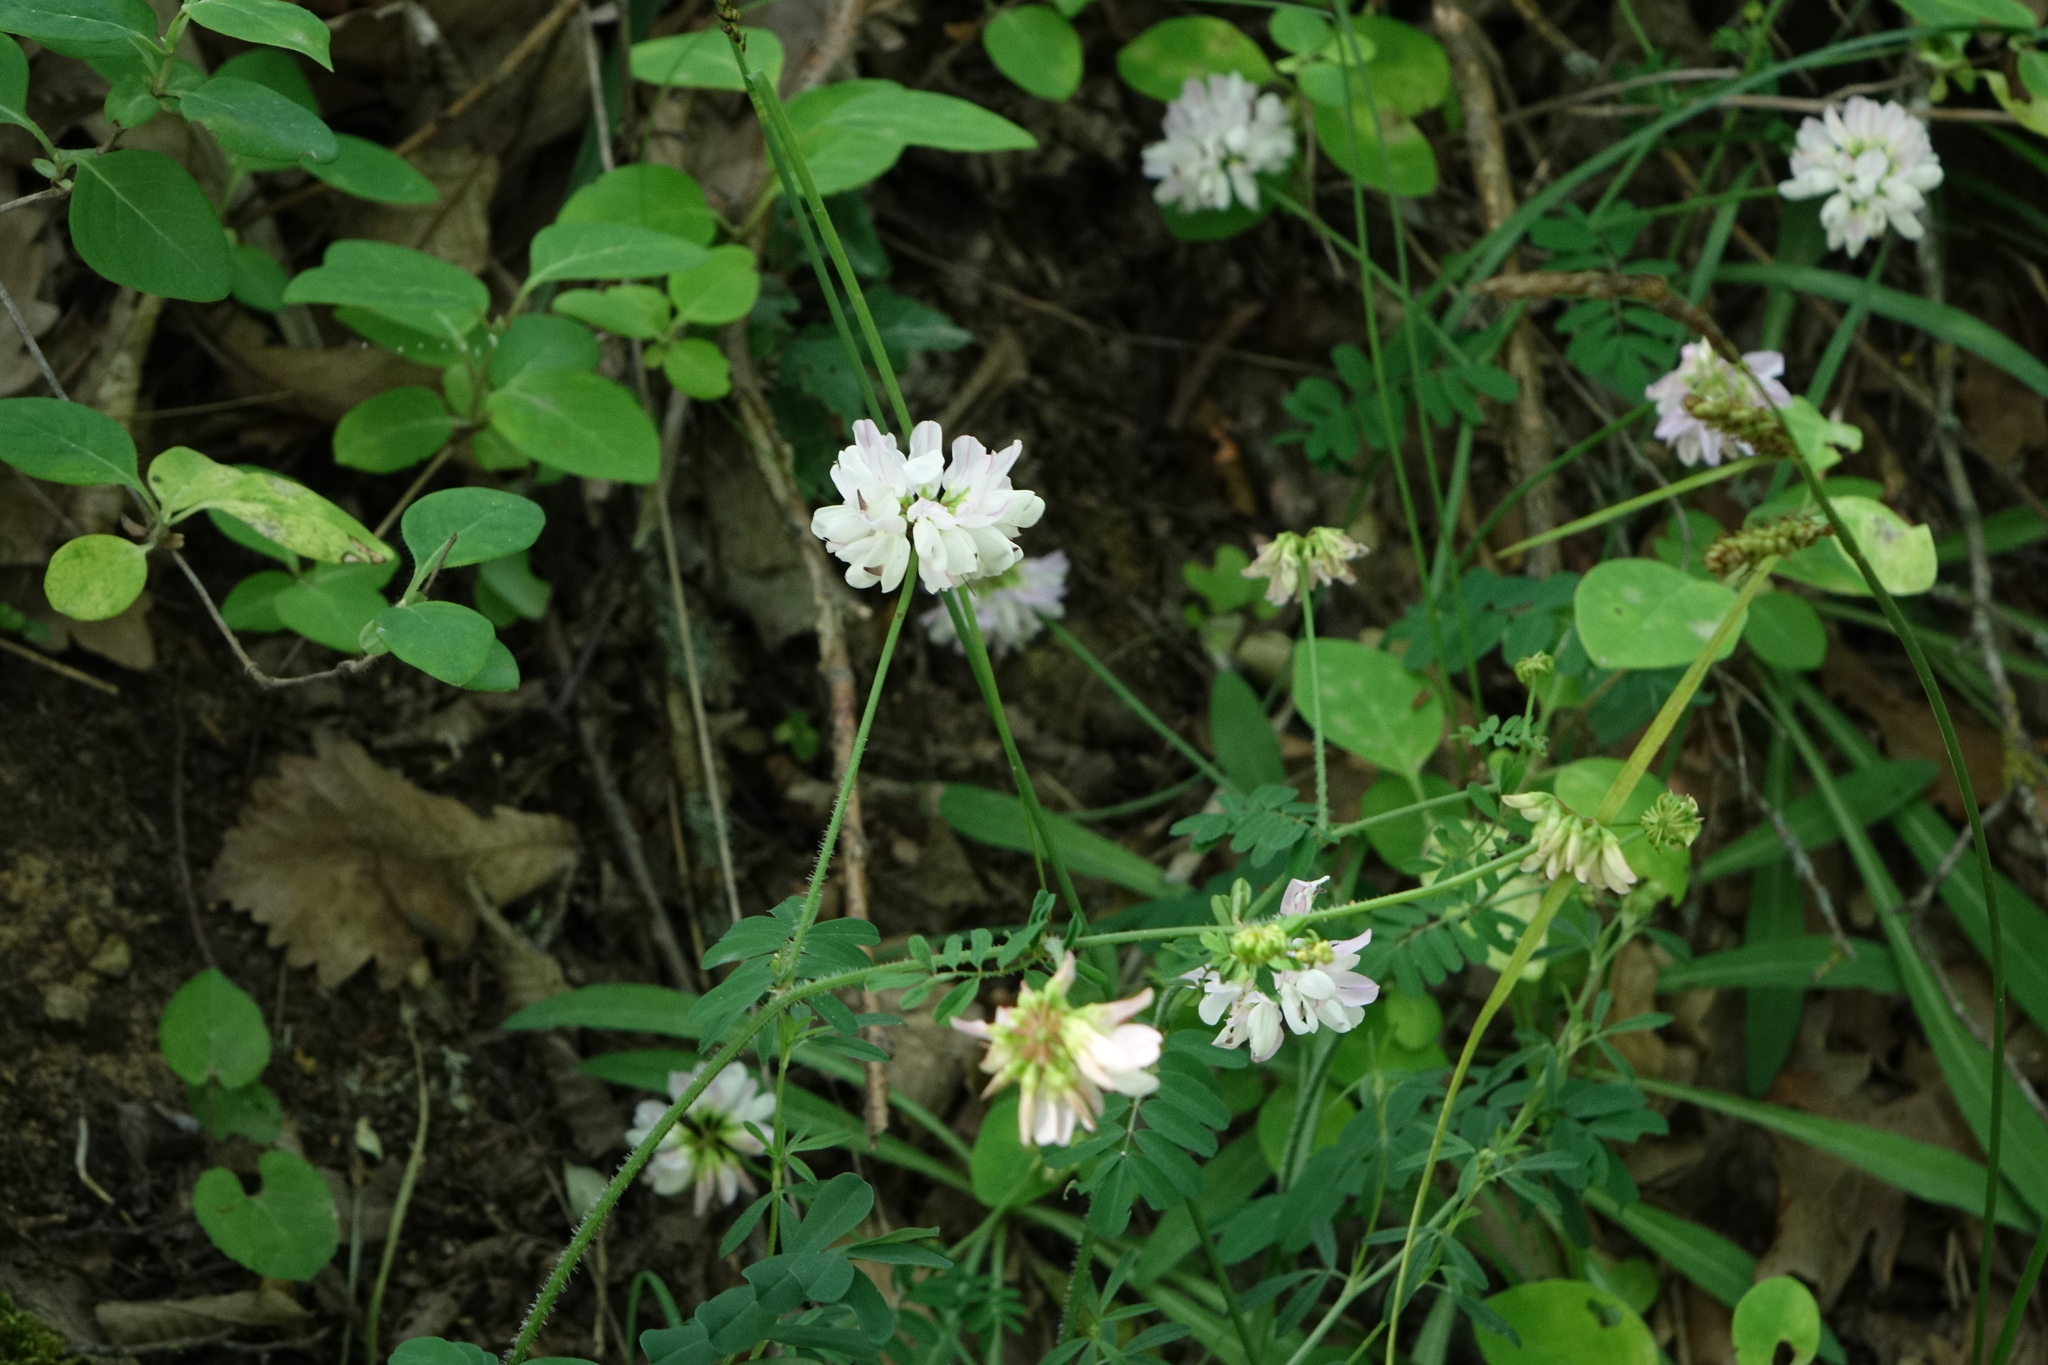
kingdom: Plantae
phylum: Tracheophyta
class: Magnoliopsida
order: Fabales
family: Fabaceae
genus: Coronilla
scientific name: Coronilla varia
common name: Crownvetch
